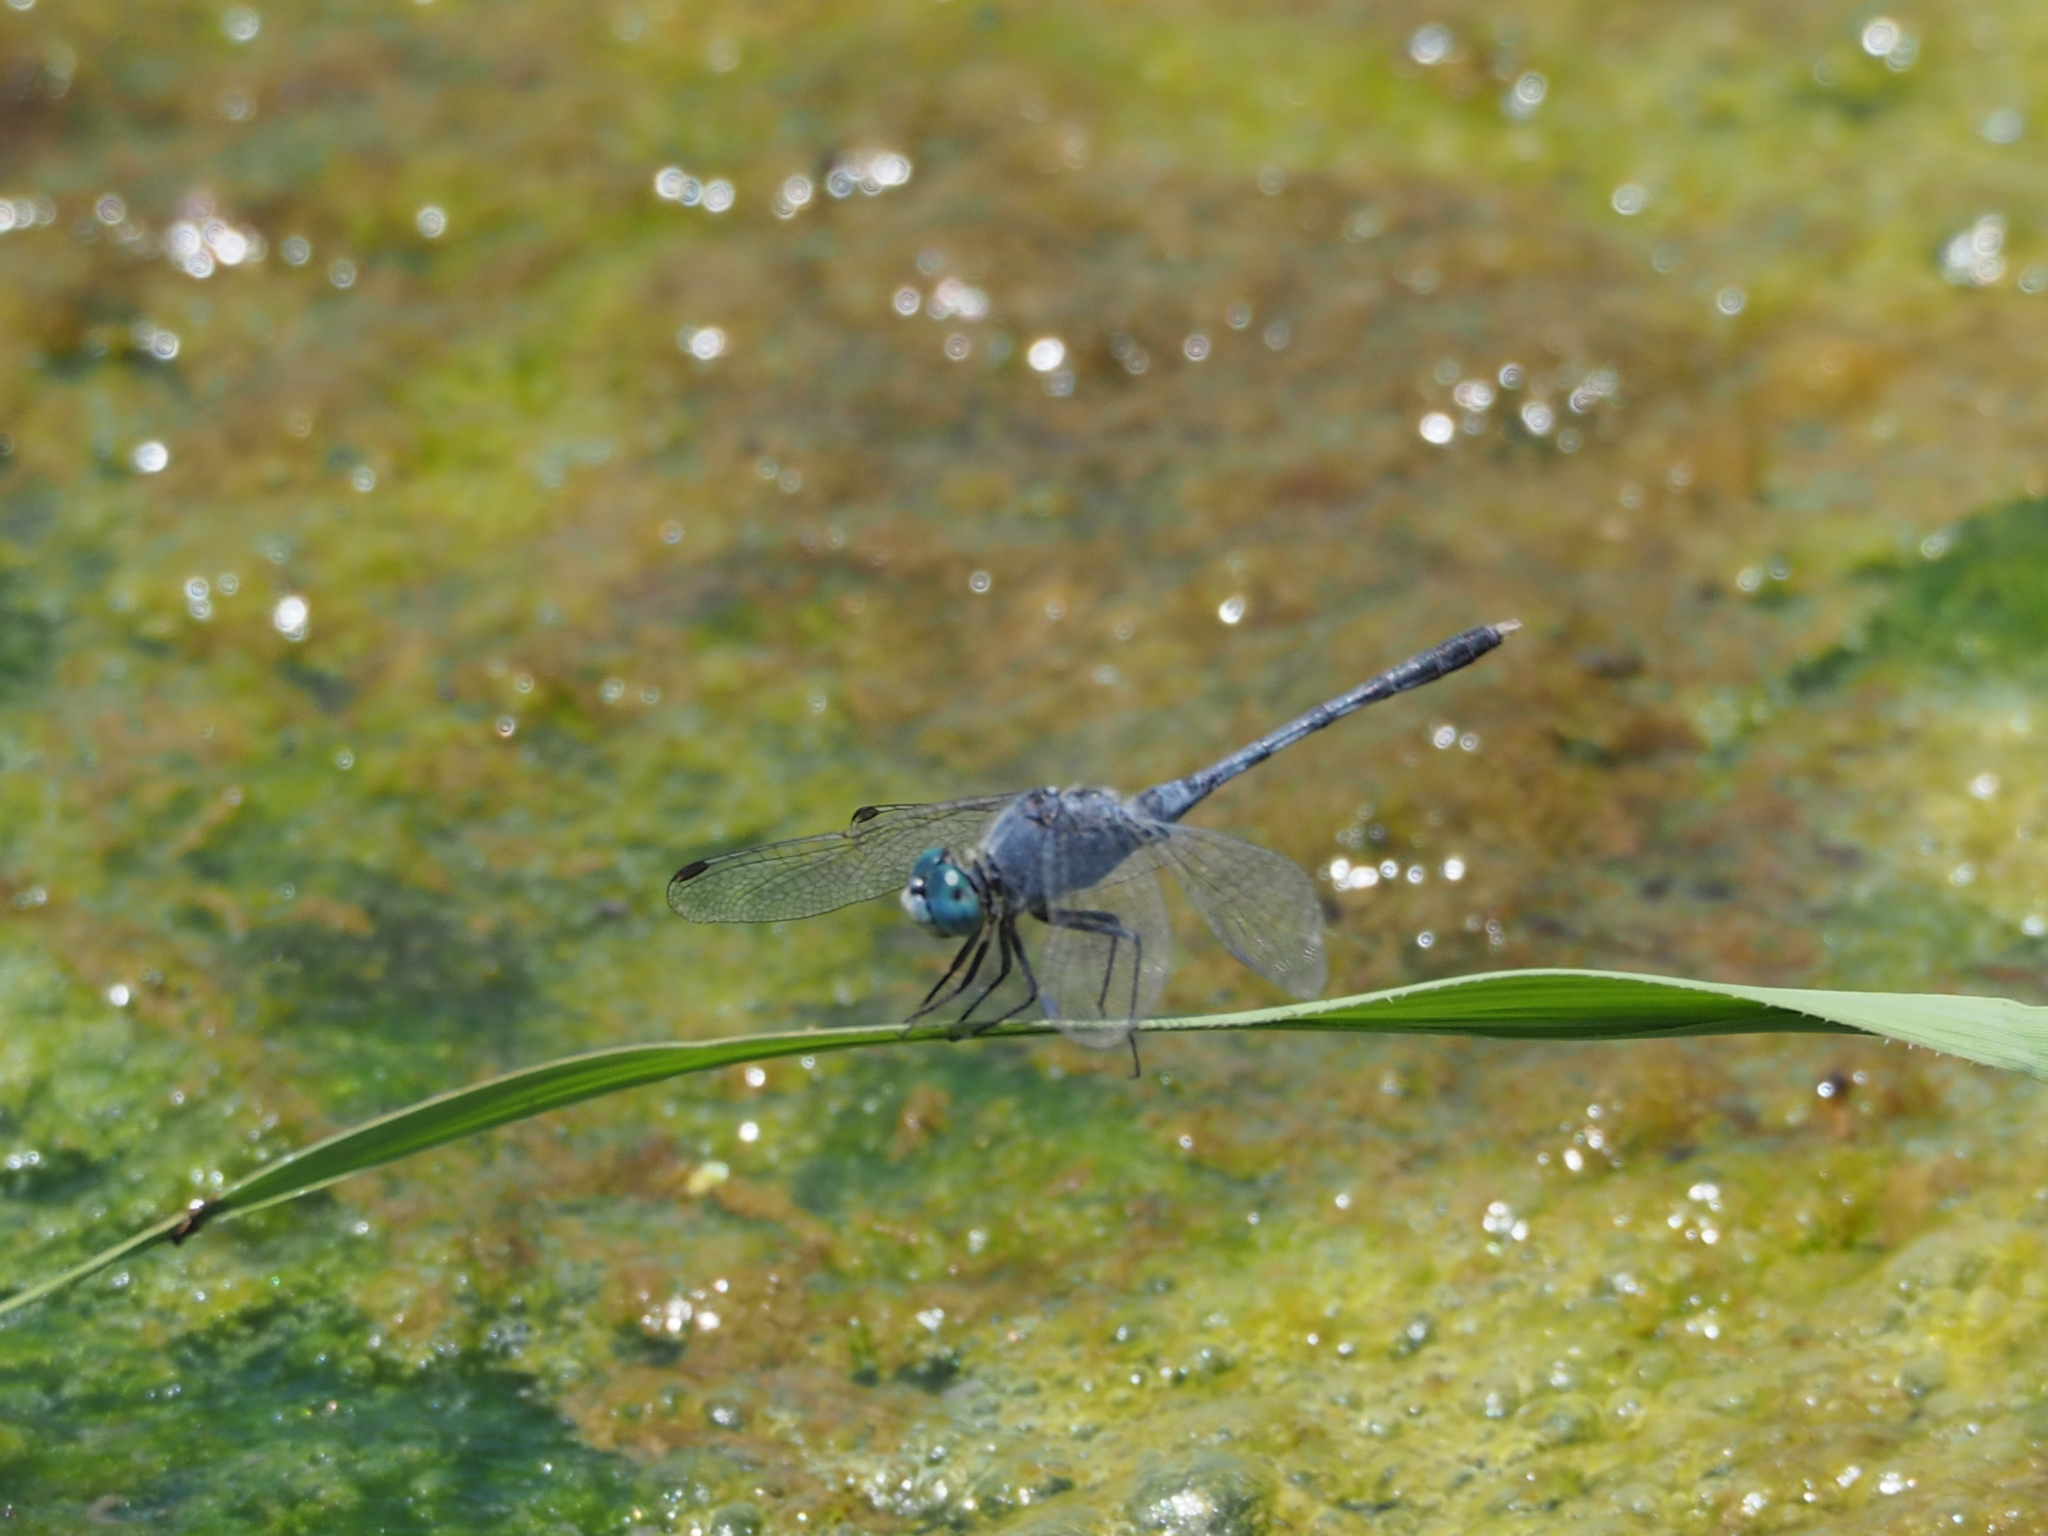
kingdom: Animalia
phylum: Arthropoda
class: Insecta
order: Odonata
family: Libellulidae
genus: Diplacodes
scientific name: Diplacodes trivialis
